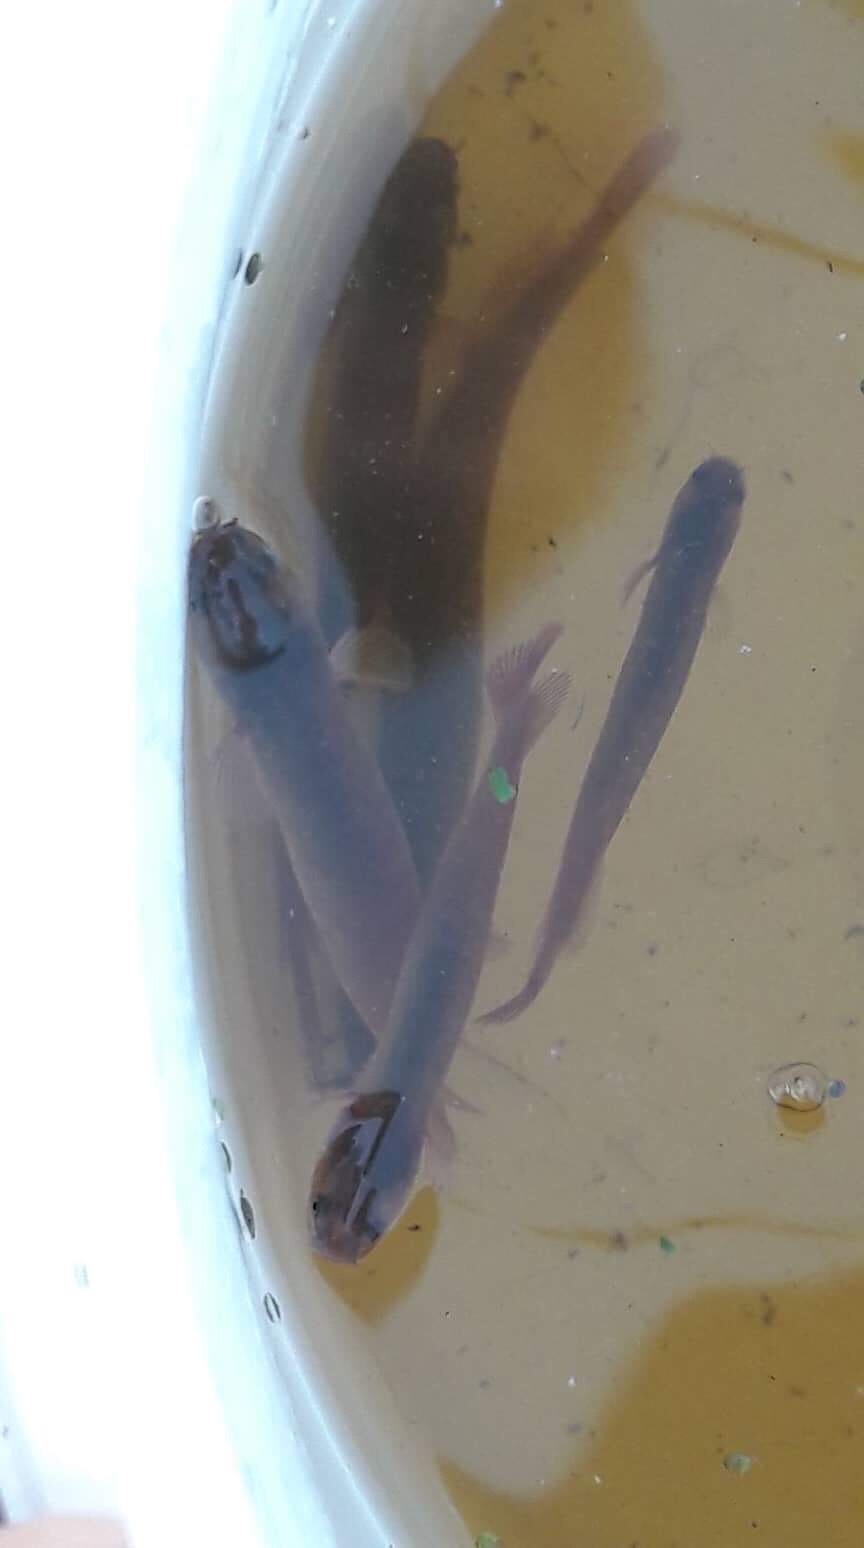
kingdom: Animalia
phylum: Chordata
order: Osmeriformes
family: Galaxiidae
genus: Neochanna
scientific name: Neochanna apoda
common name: Brown mudfish
